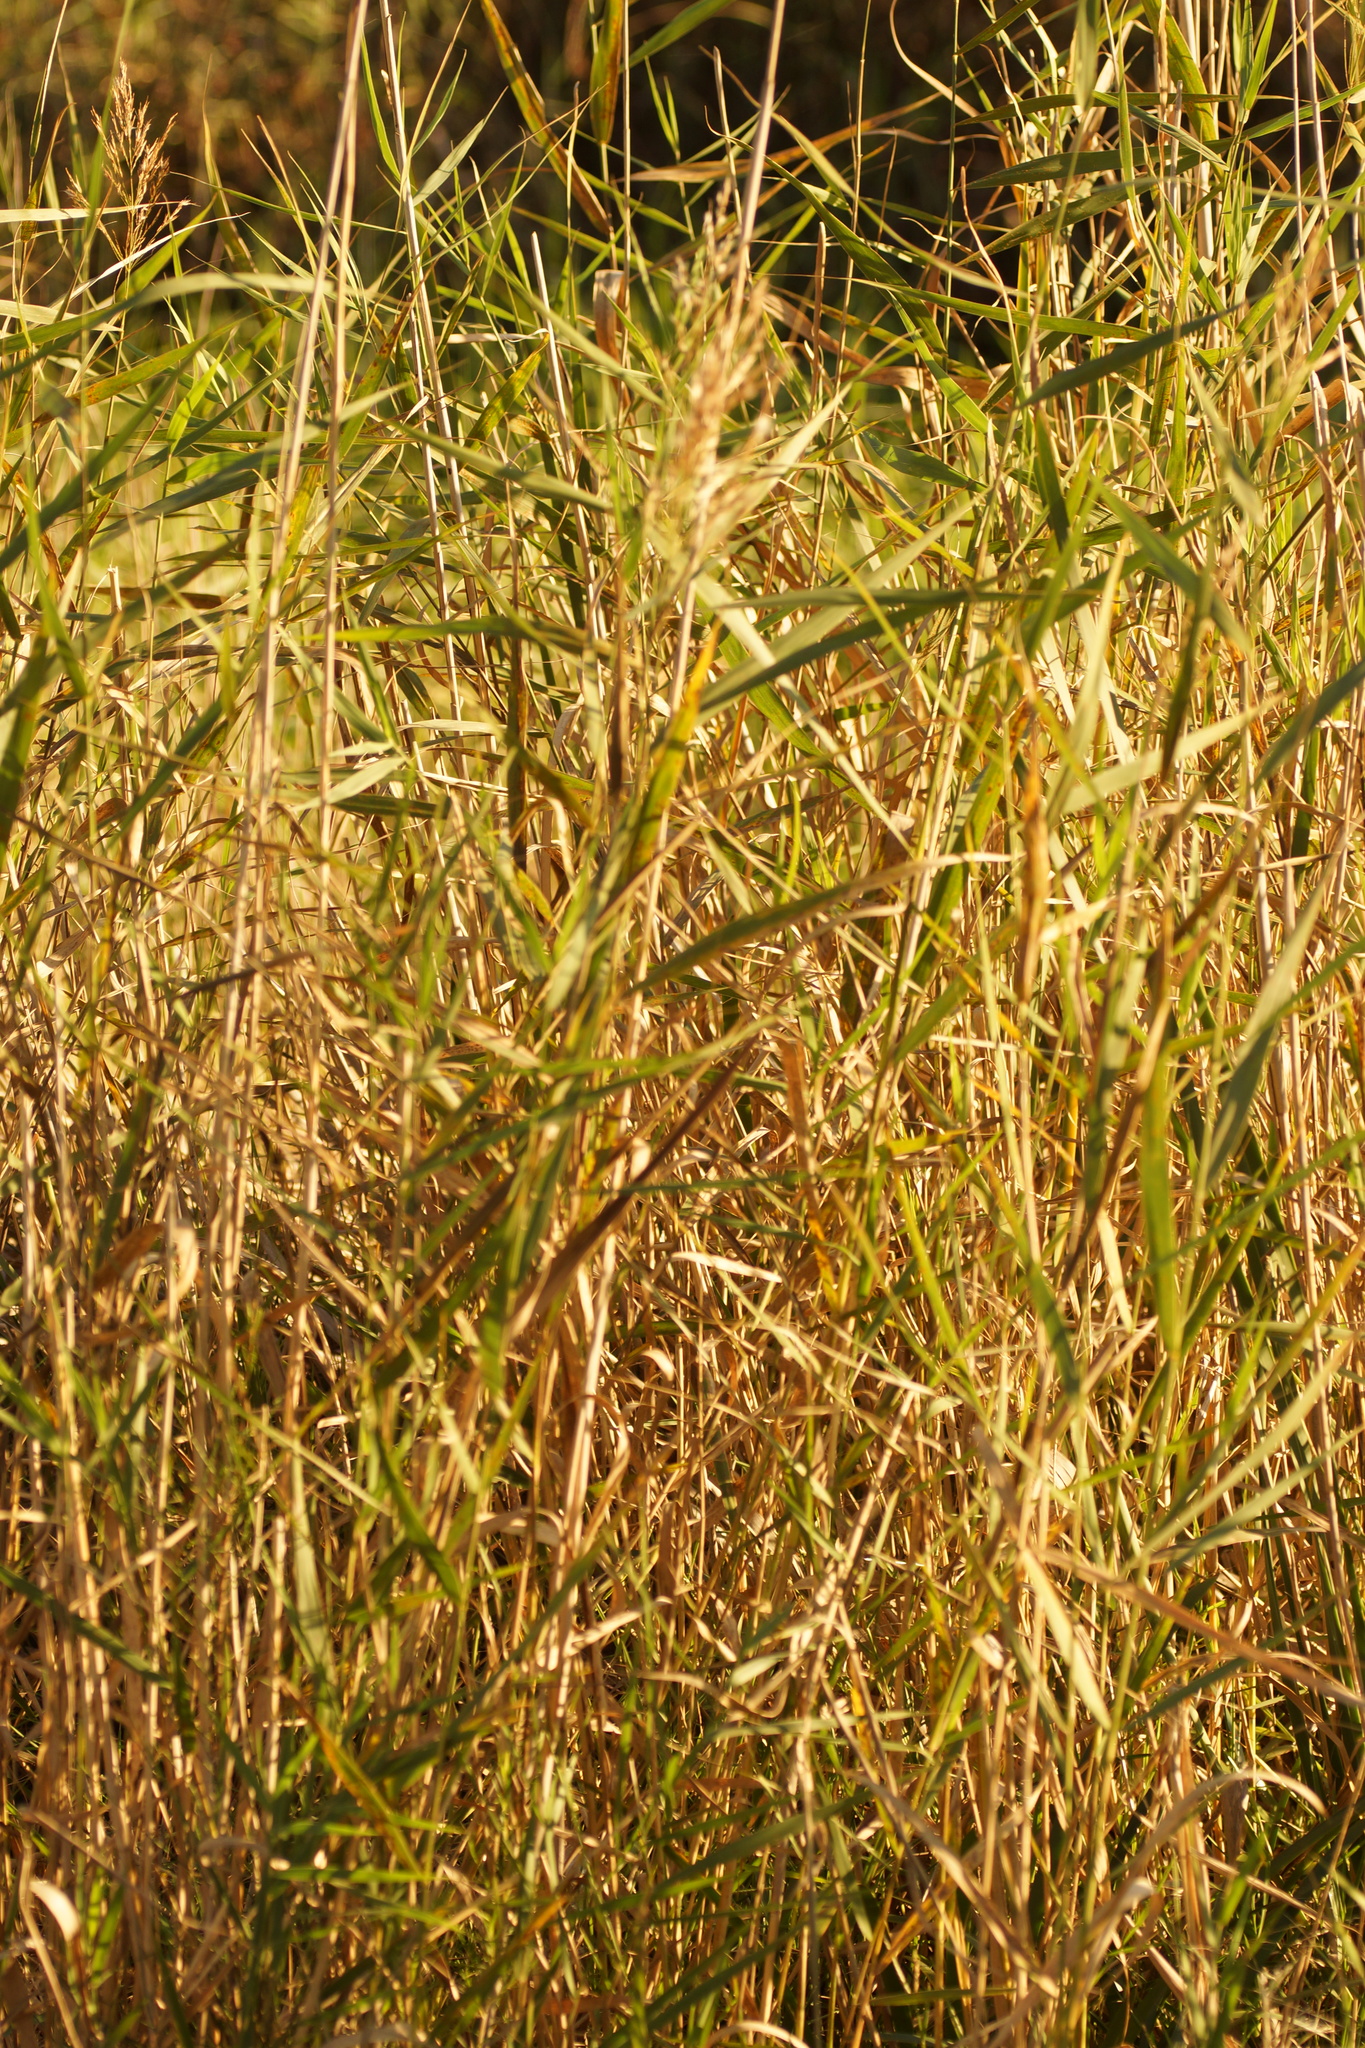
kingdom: Plantae
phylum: Tracheophyta
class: Liliopsida
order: Poales
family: Poaceae
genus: Phragmites
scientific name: Phragmites australis
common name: Common reed
